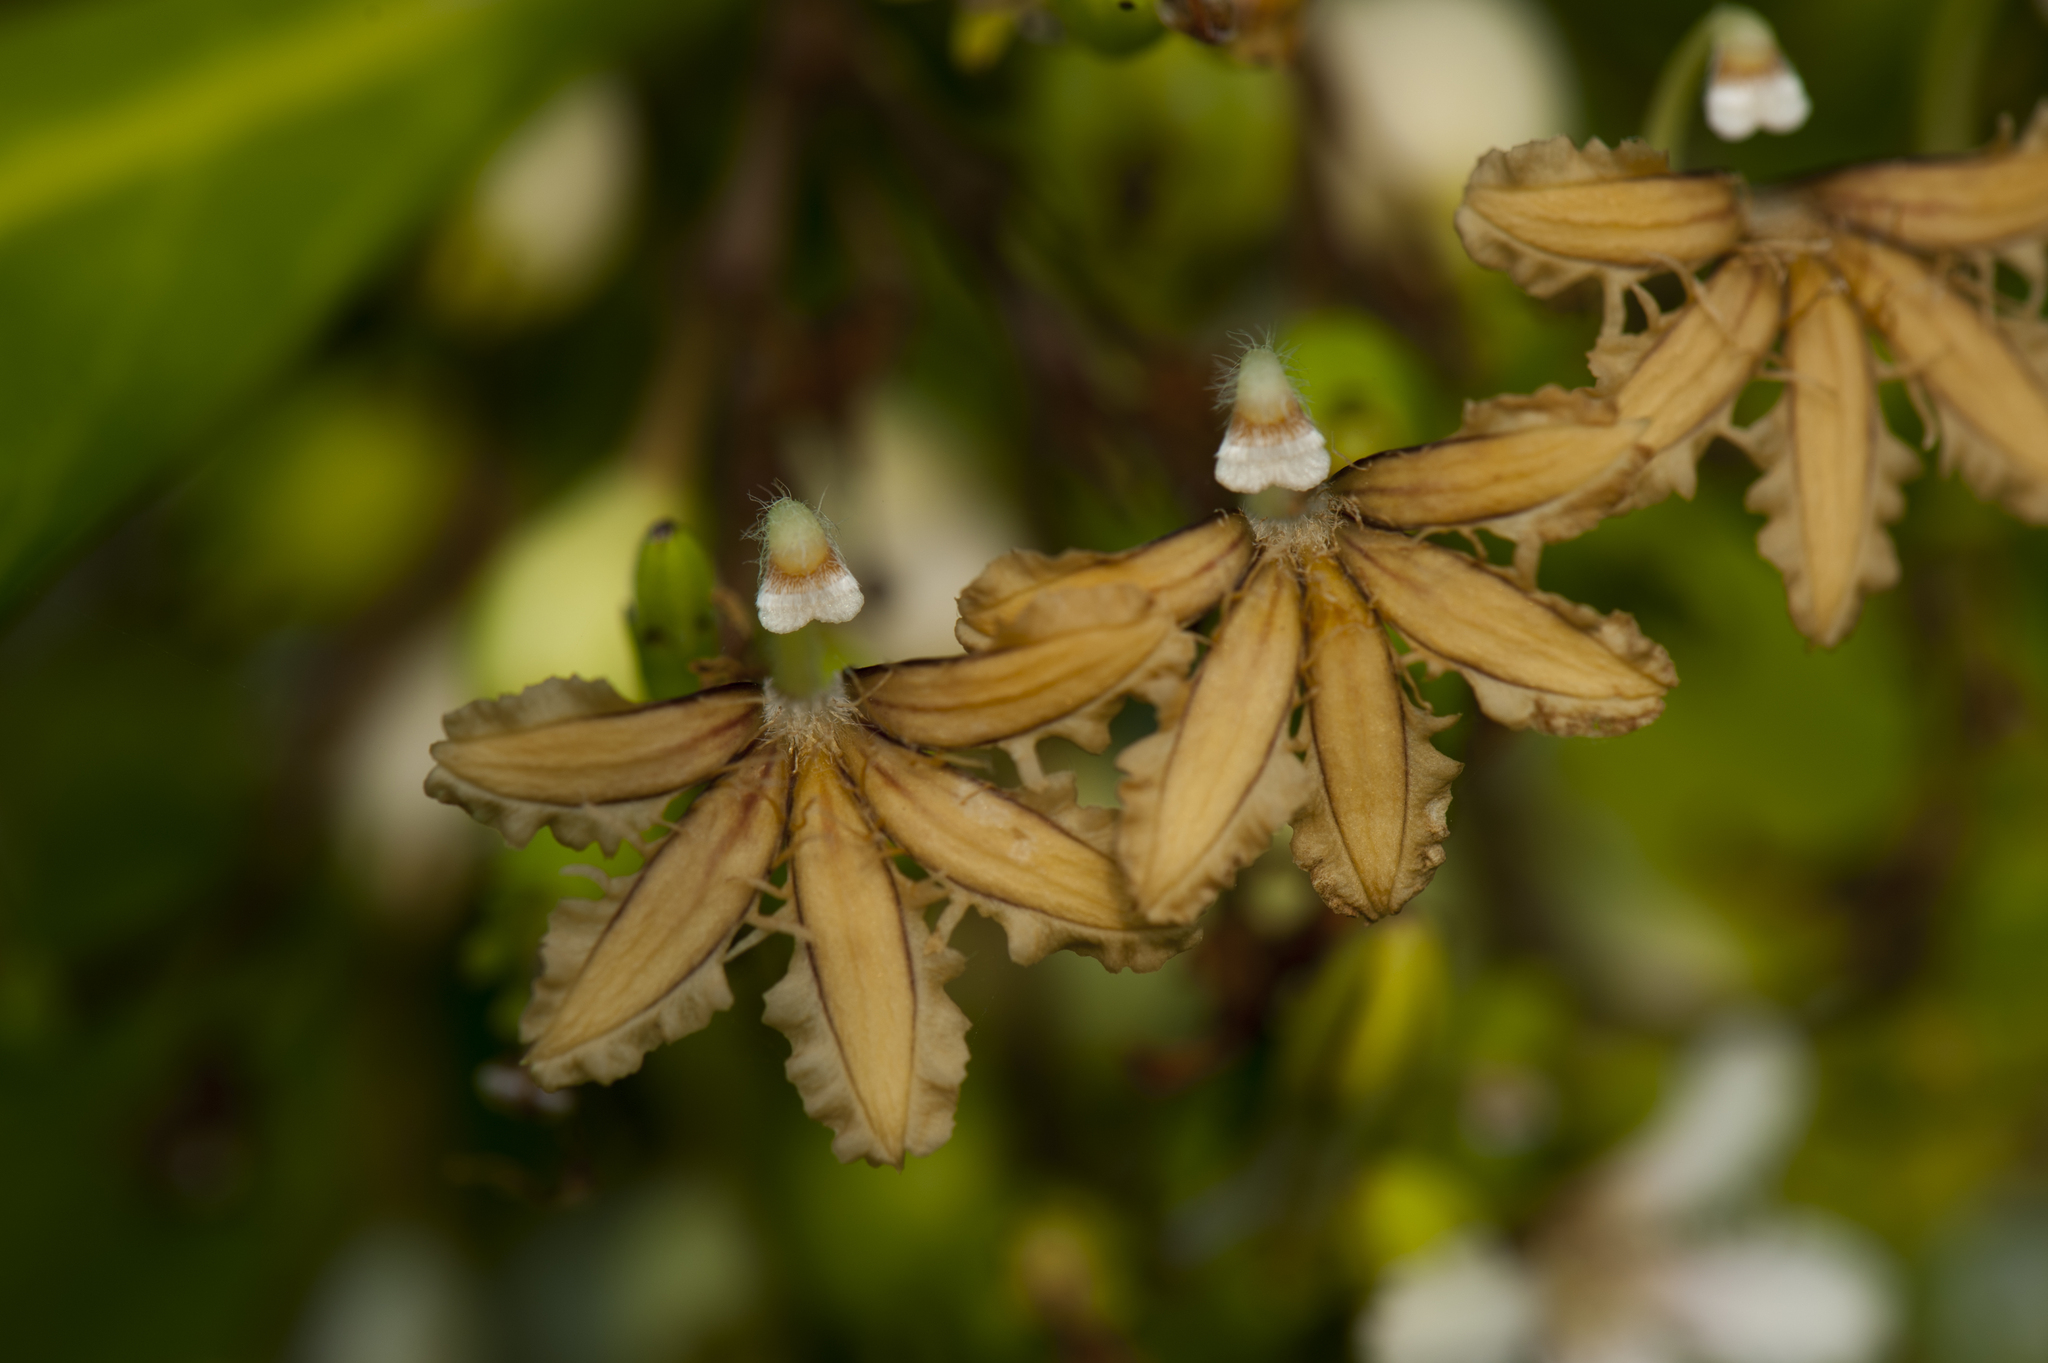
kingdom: Plantae
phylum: Tracheophyta
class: Magnoliopsida
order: Asterales
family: Goodeniaceae
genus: Scaevola
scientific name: Scaevola taccada
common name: Sea lettucetree
